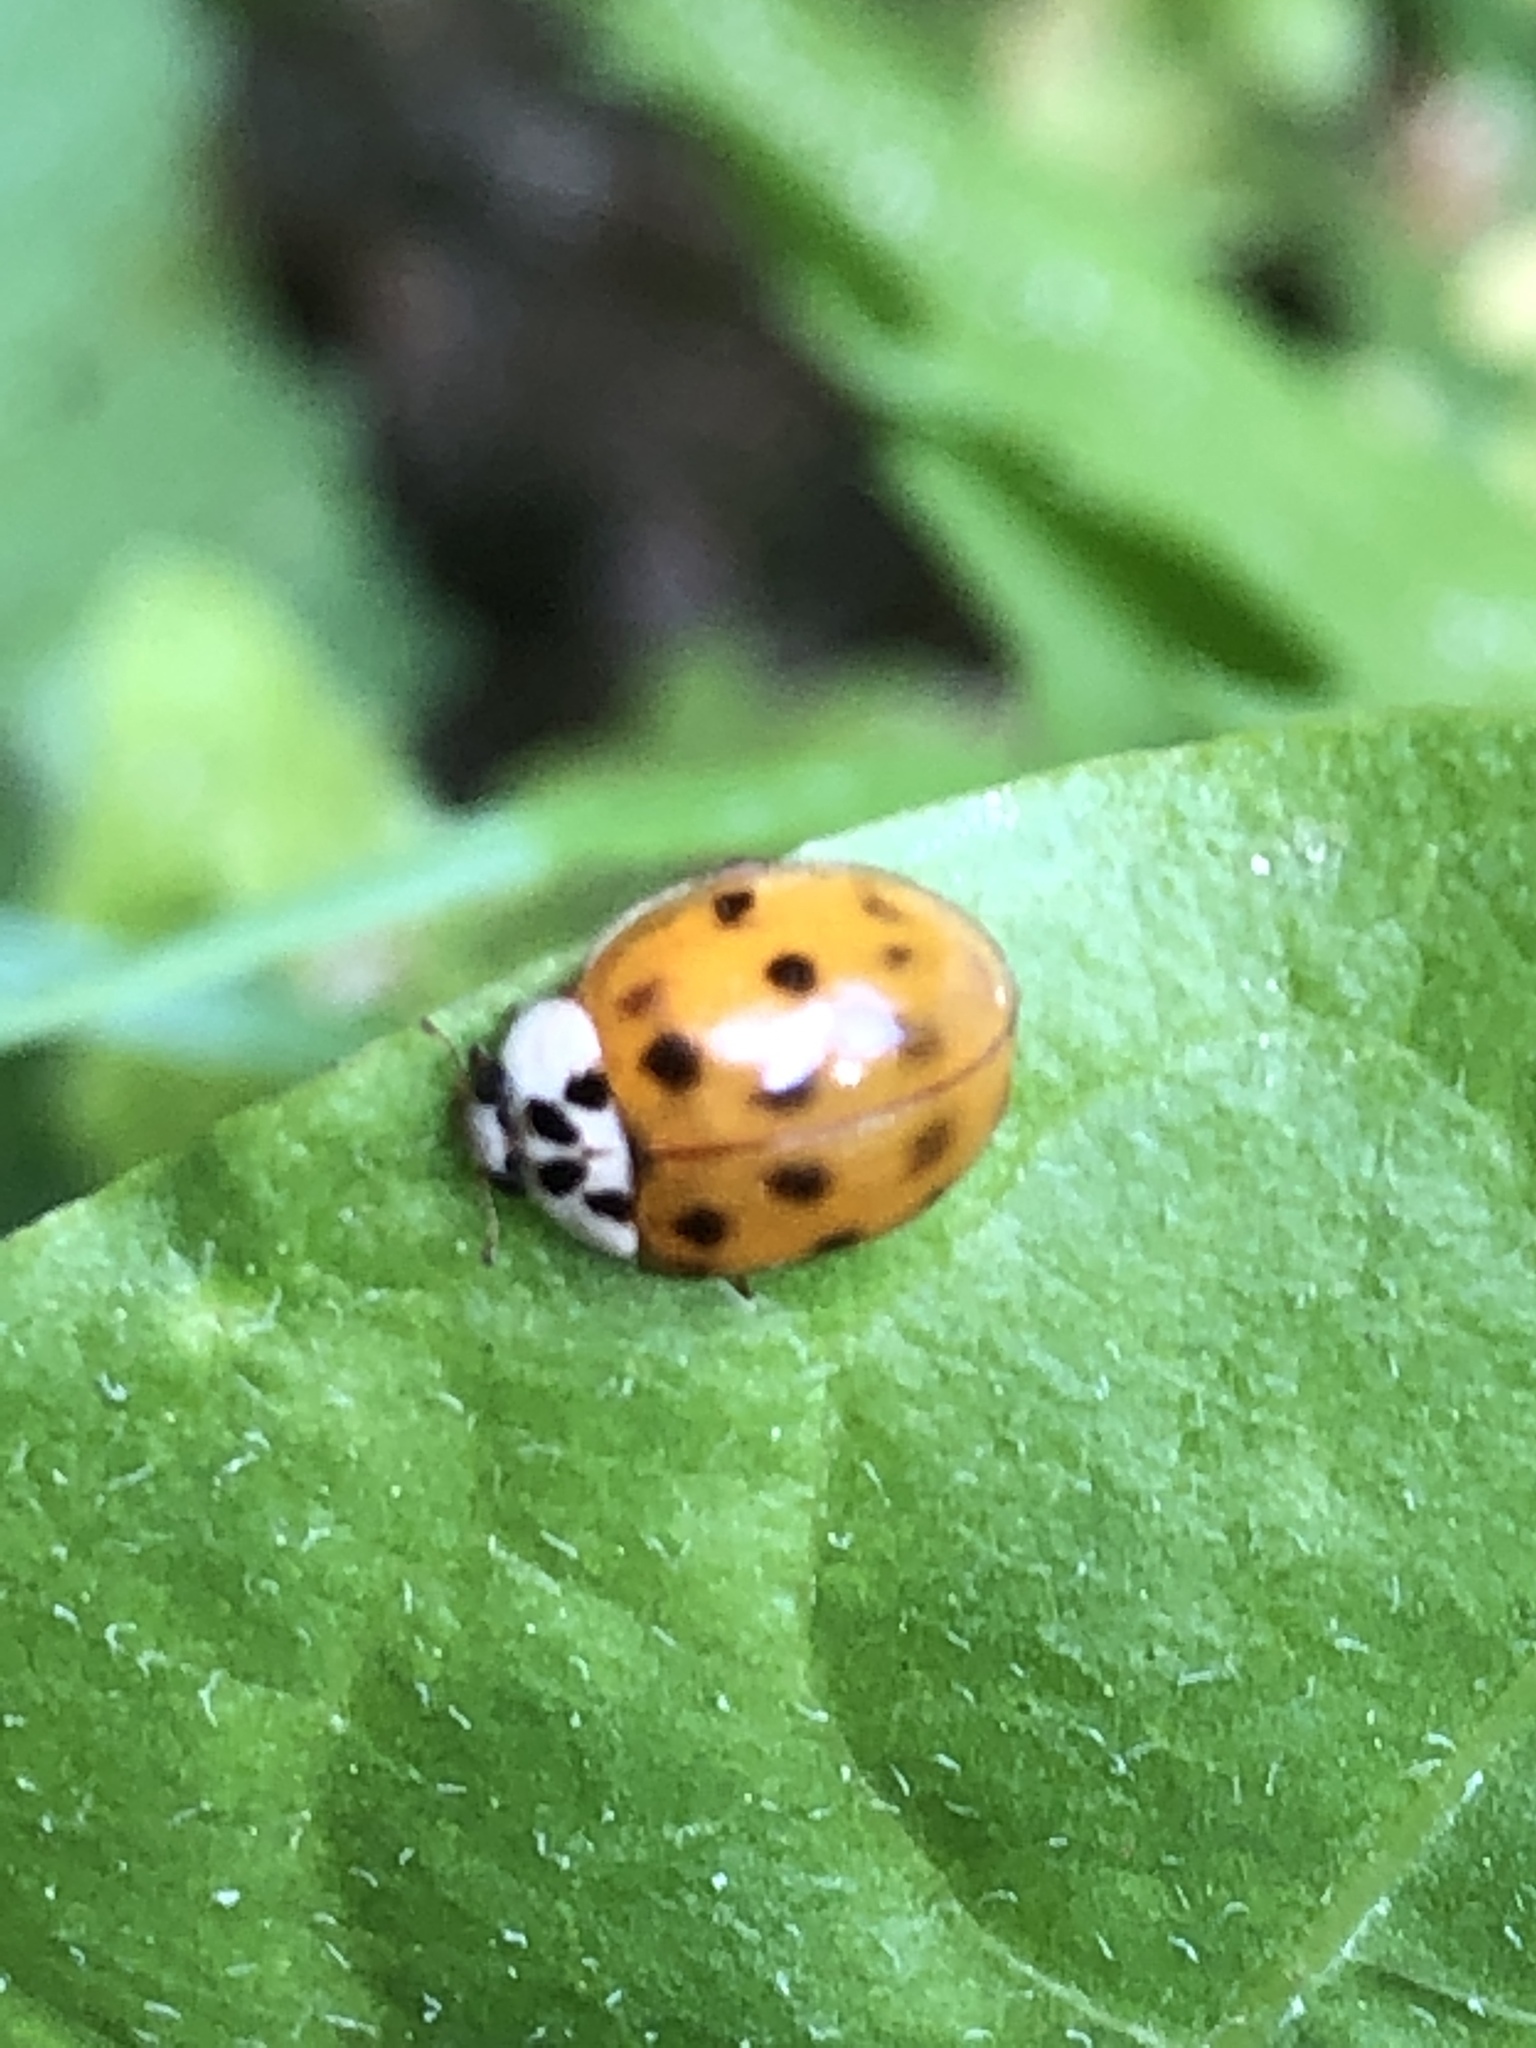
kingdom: Animalia
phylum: Arthropoda
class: Insecta
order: Coleoptera
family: Coccinellidae
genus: Harmonia
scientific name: Harmonia axyridis
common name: Harlequin ladybird
